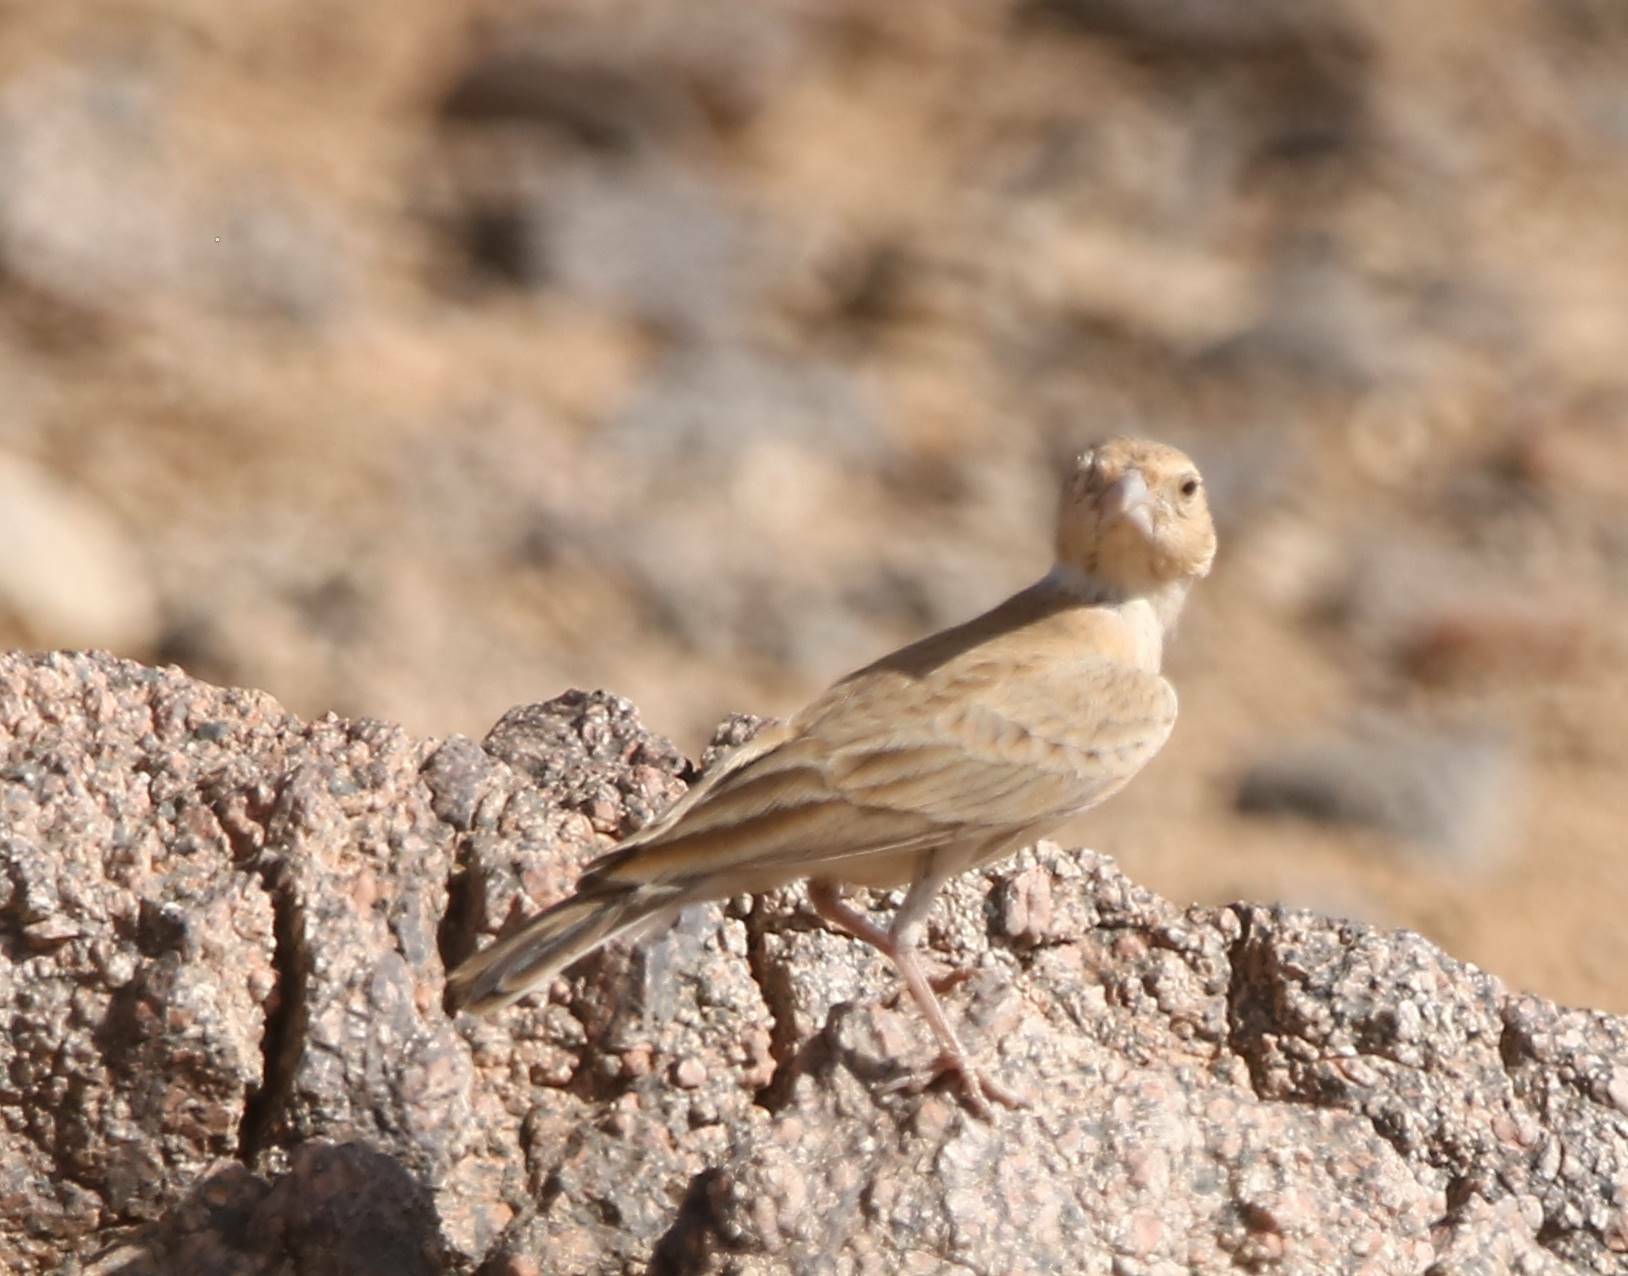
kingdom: Animalia
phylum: Chordata
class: Aves
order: Passeriformes
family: Alaudidae
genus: Eremopterix
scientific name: Eremopterix nigriceps
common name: Black-crowned sparrow-lark
